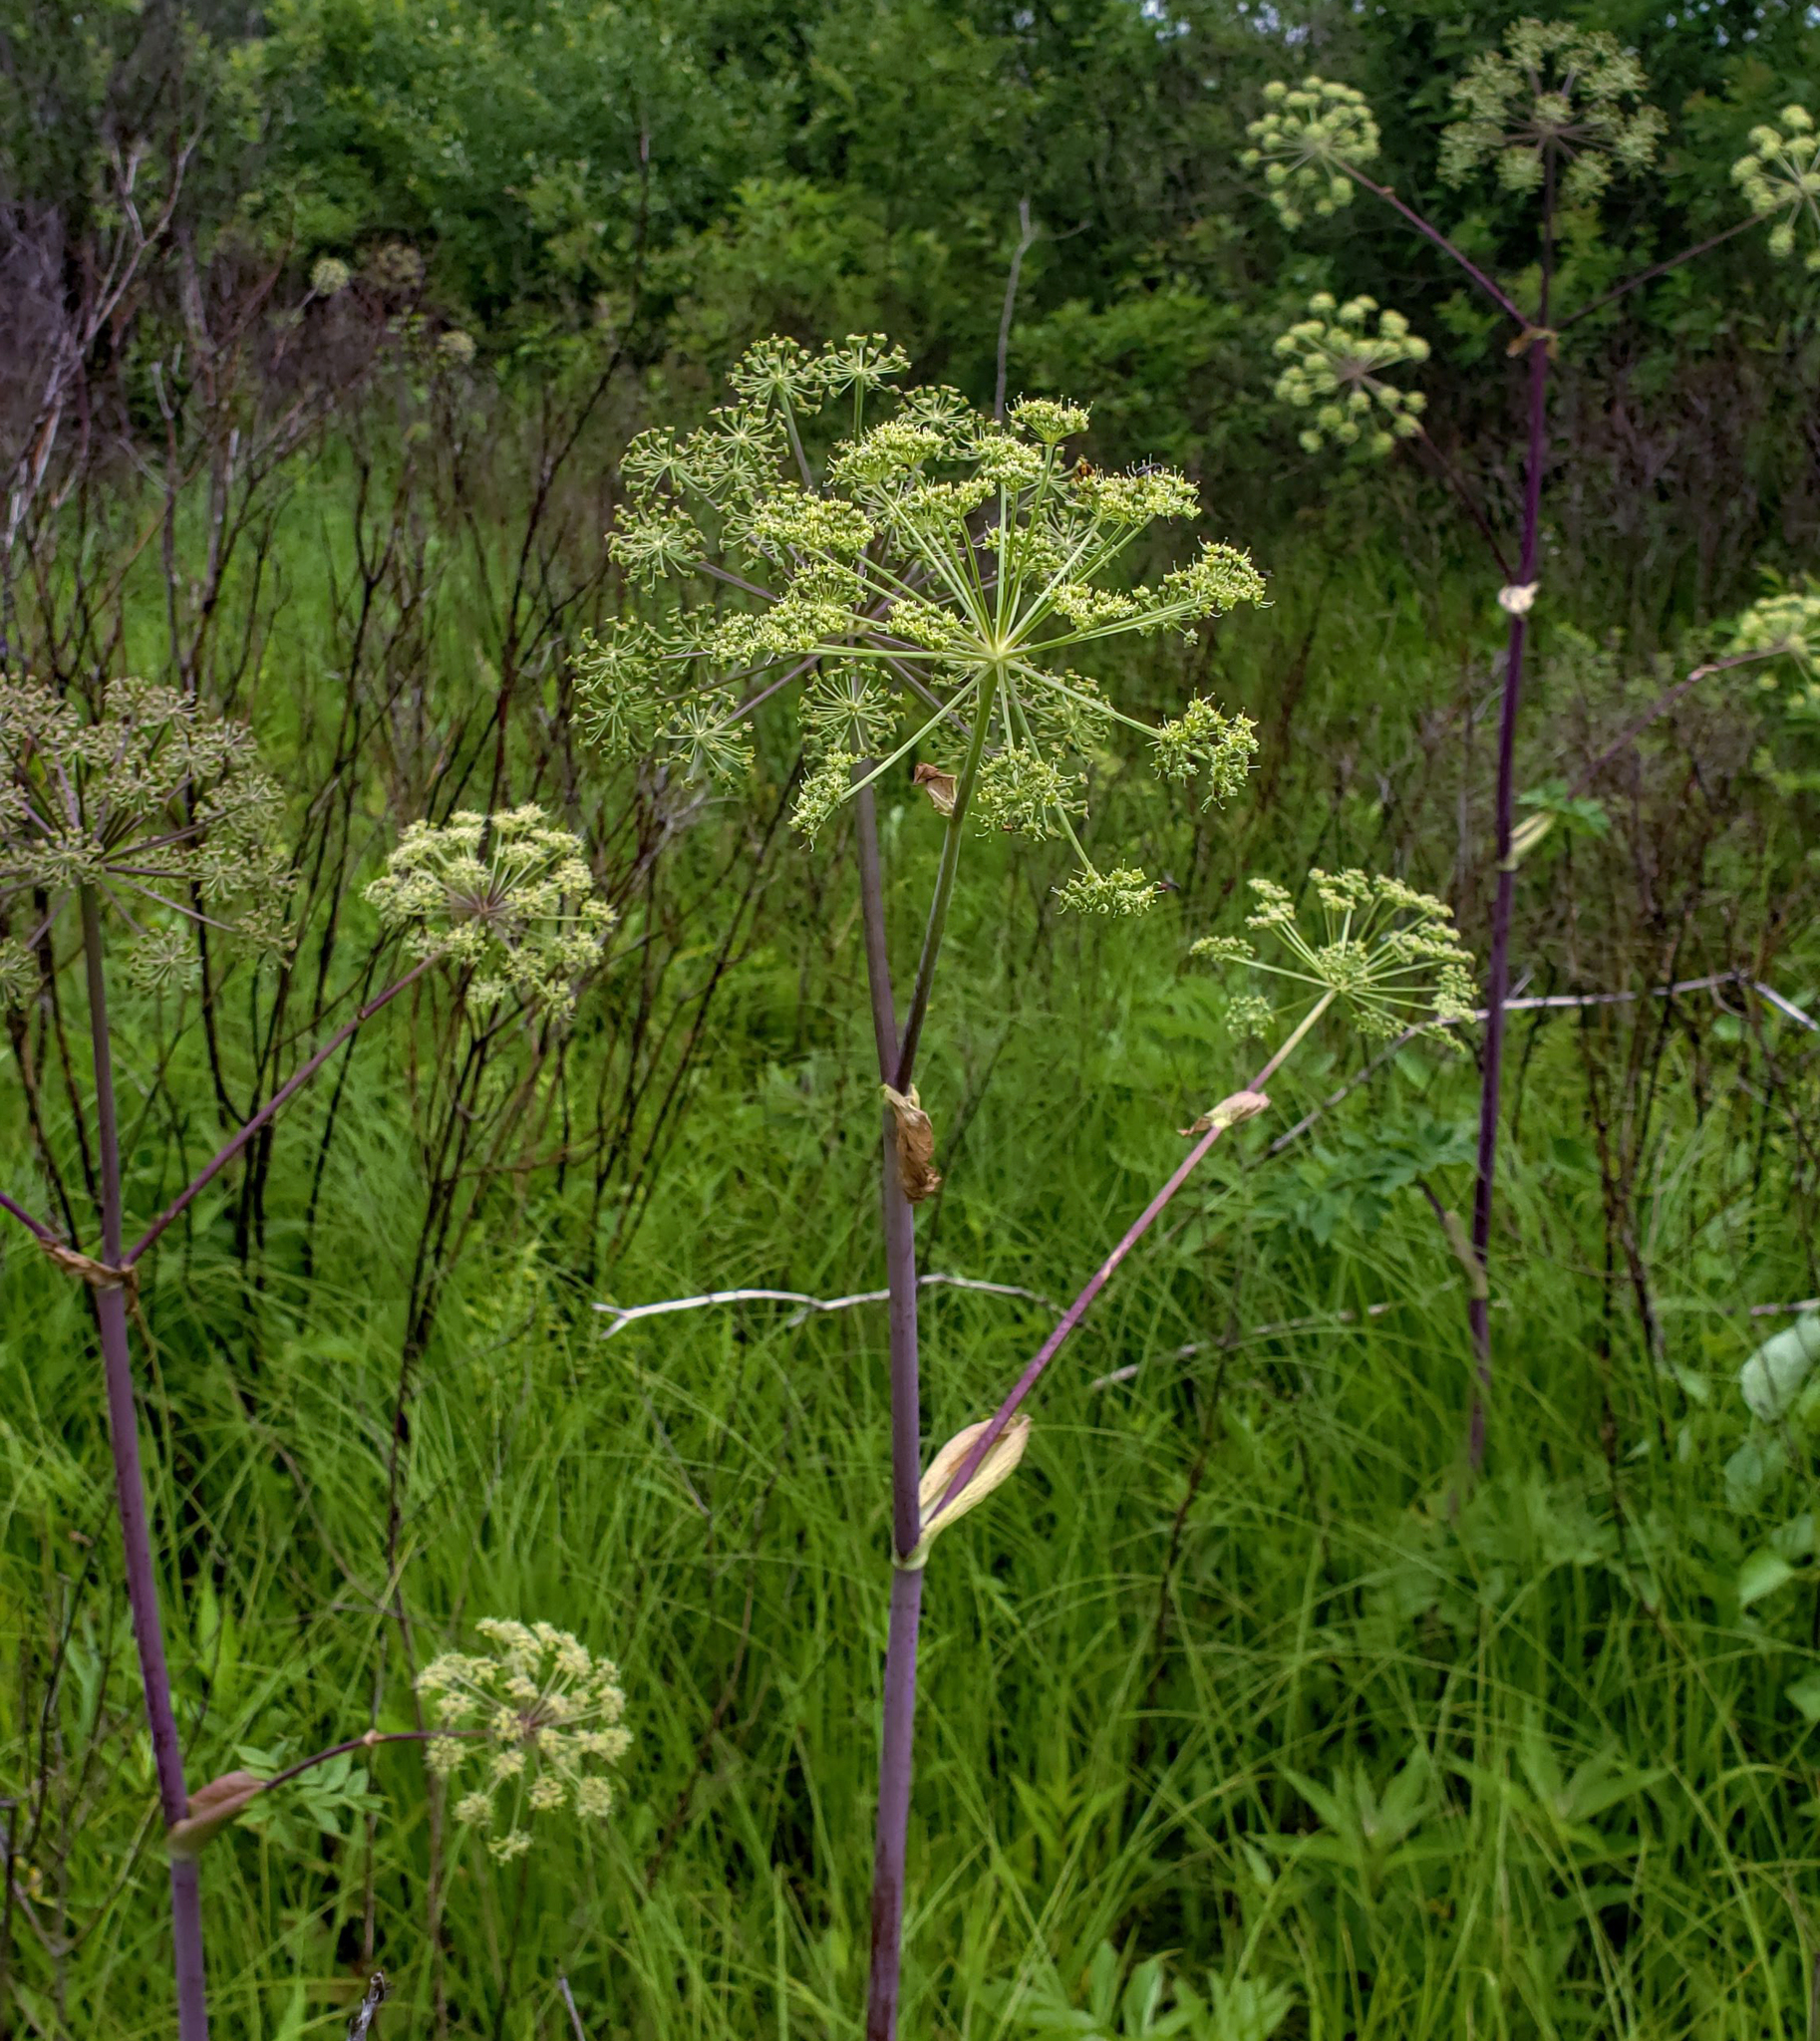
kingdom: Plantae
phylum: Tracheophyta
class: Magnoliopsida
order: Apiales
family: Apiaceae
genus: Angelica
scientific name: Angelica atropurpurea
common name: Great angelica
